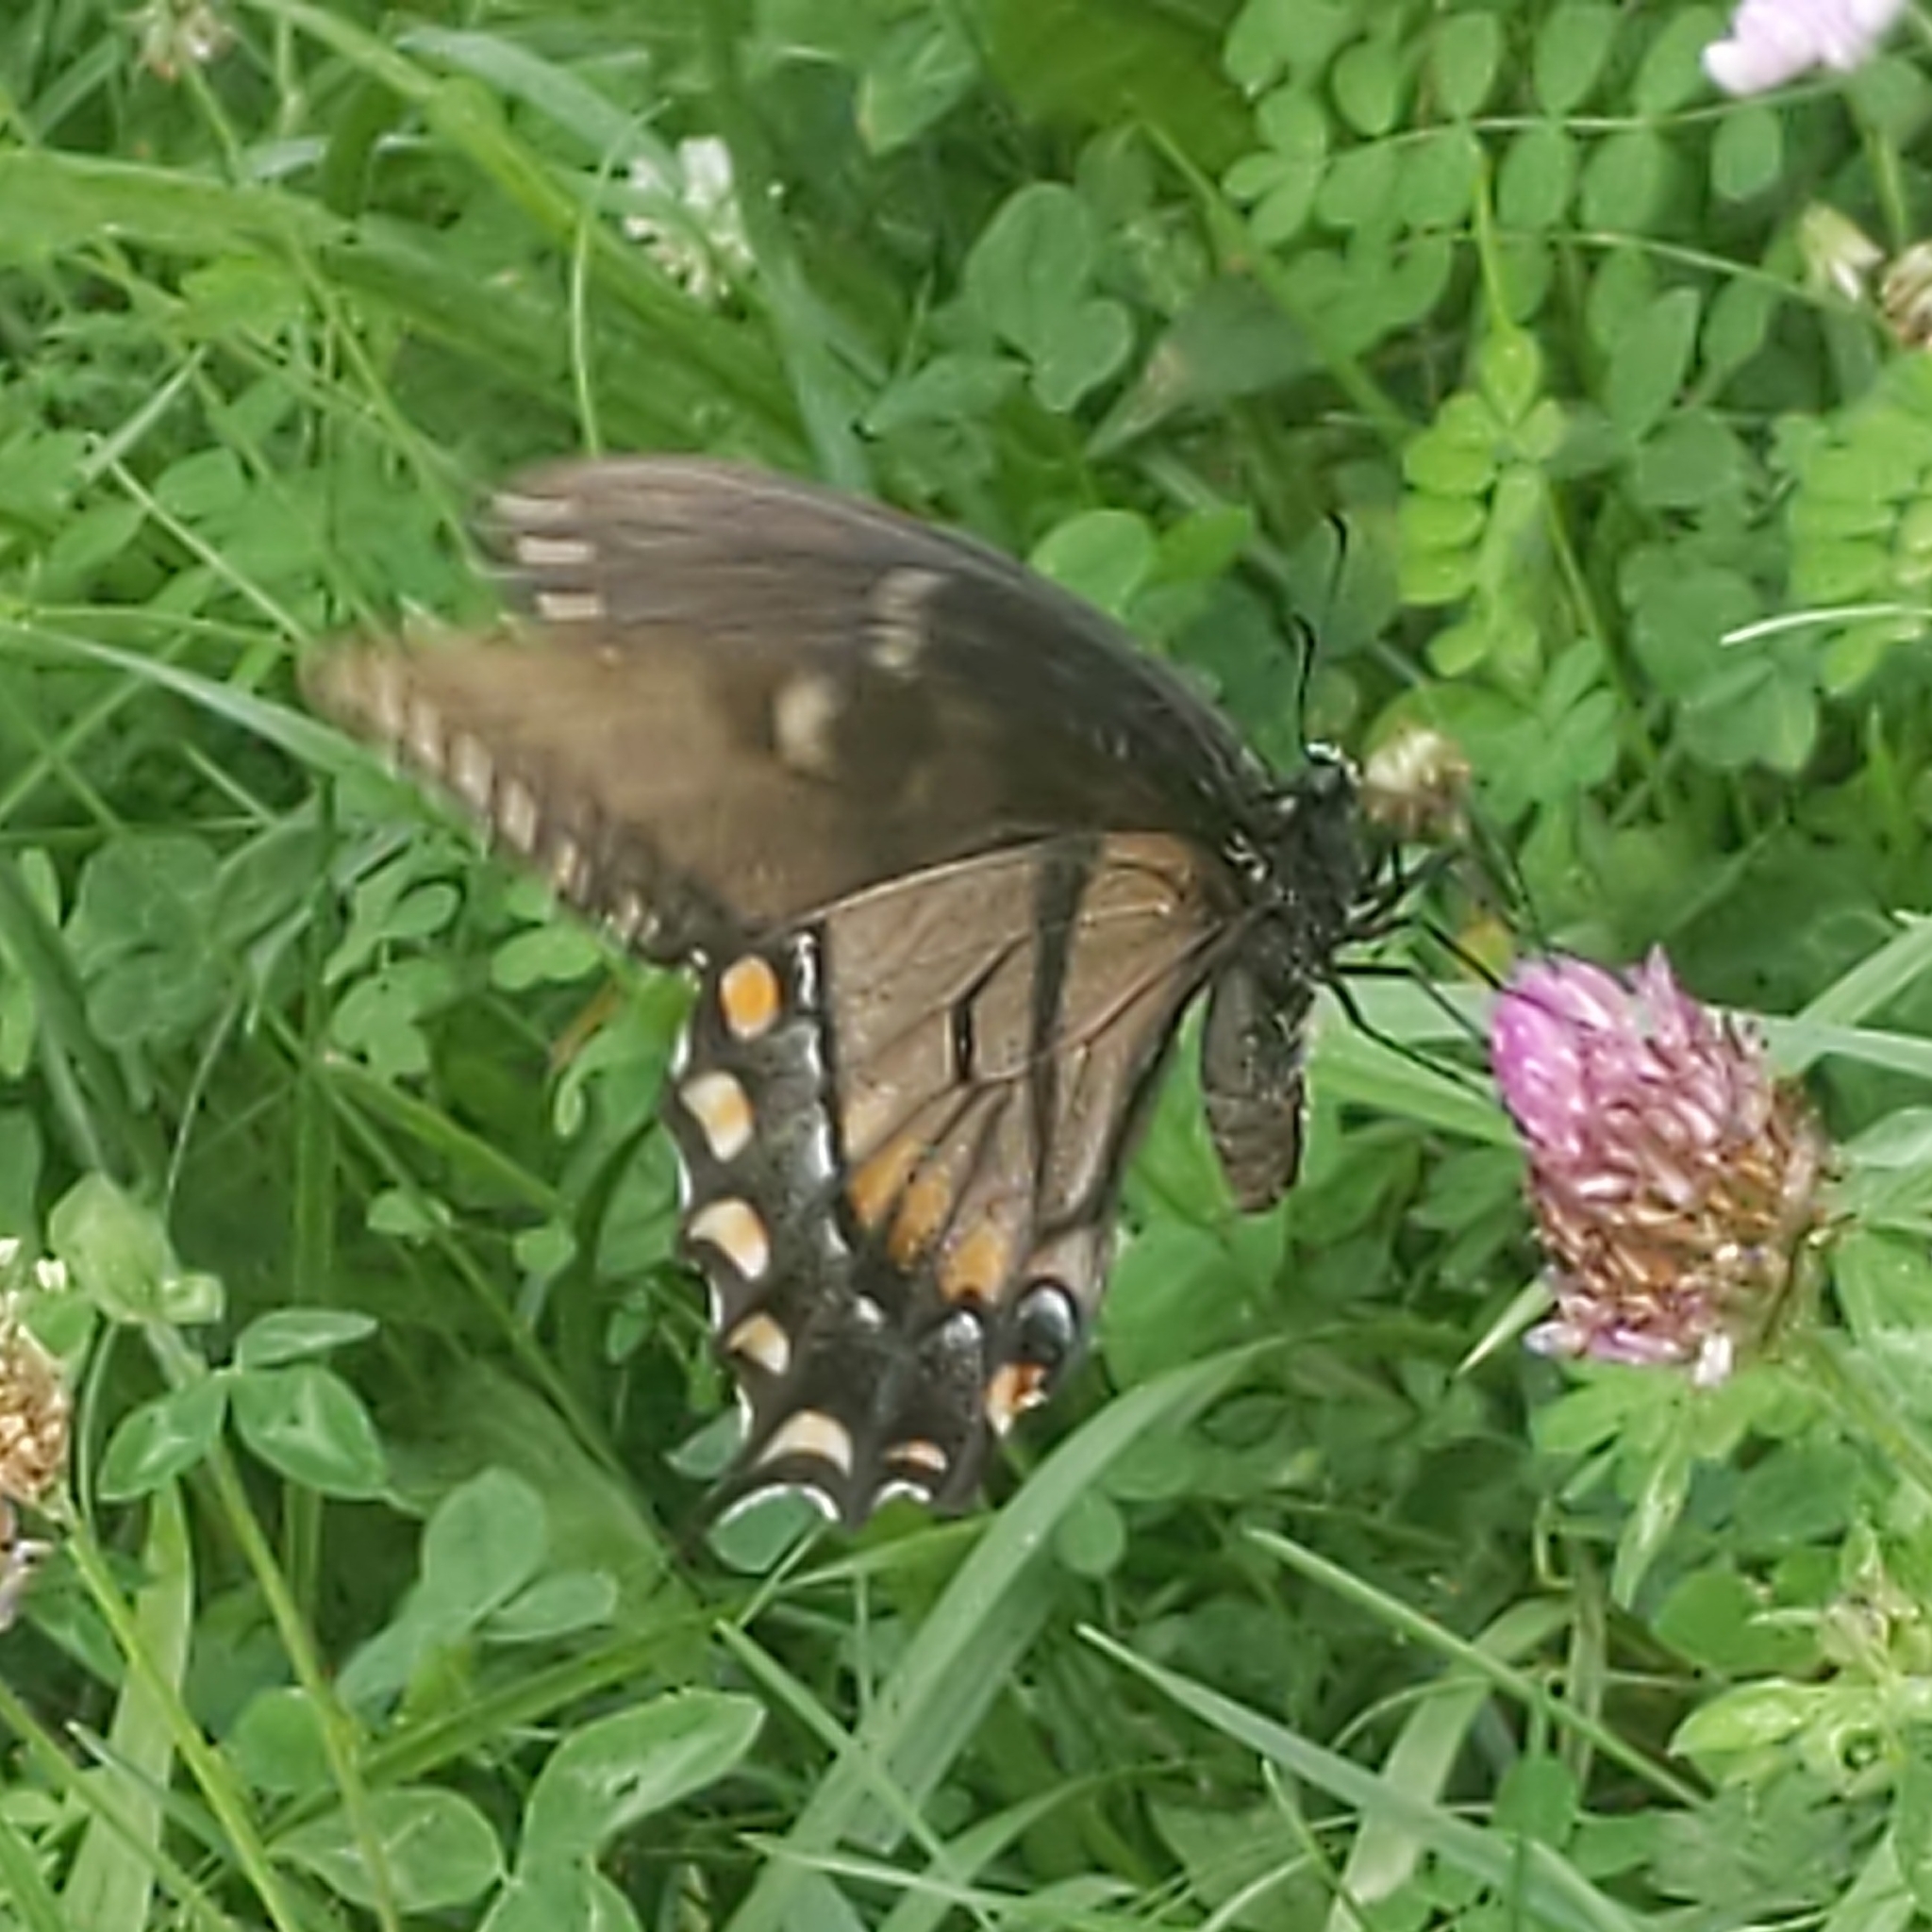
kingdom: Animalia
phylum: Arthropoda
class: Insecta
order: Lepidoptera
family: Papilionidae
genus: Papilio
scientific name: Papilio glaucus
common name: Tiger swallowtail
